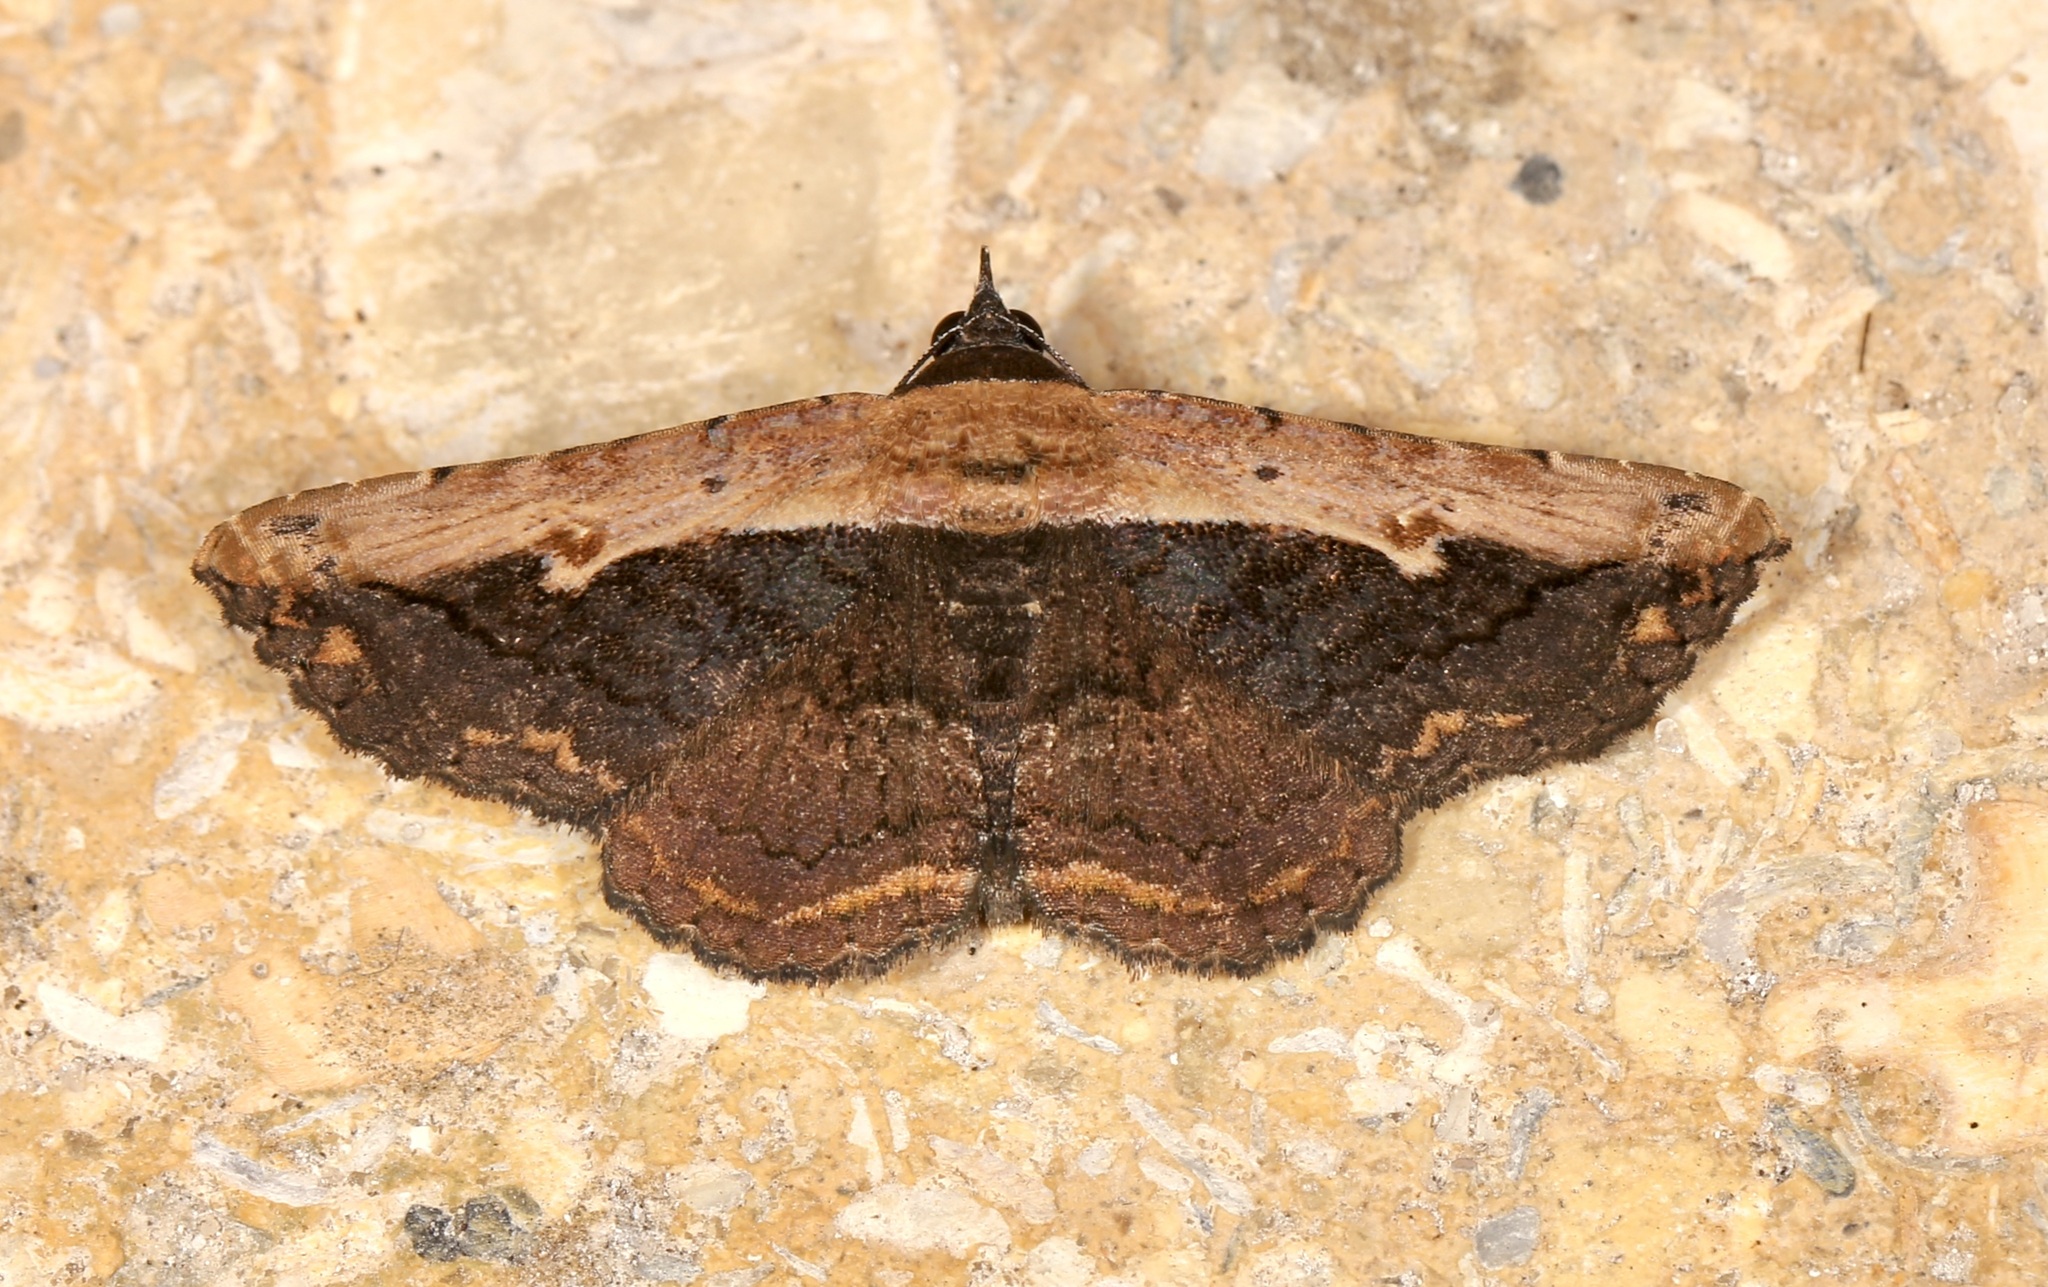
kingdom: Animalia
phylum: Arthropoda
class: Insecta
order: Lepidoptera
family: Erebidae
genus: Selenisa
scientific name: Selenisa sueroides
